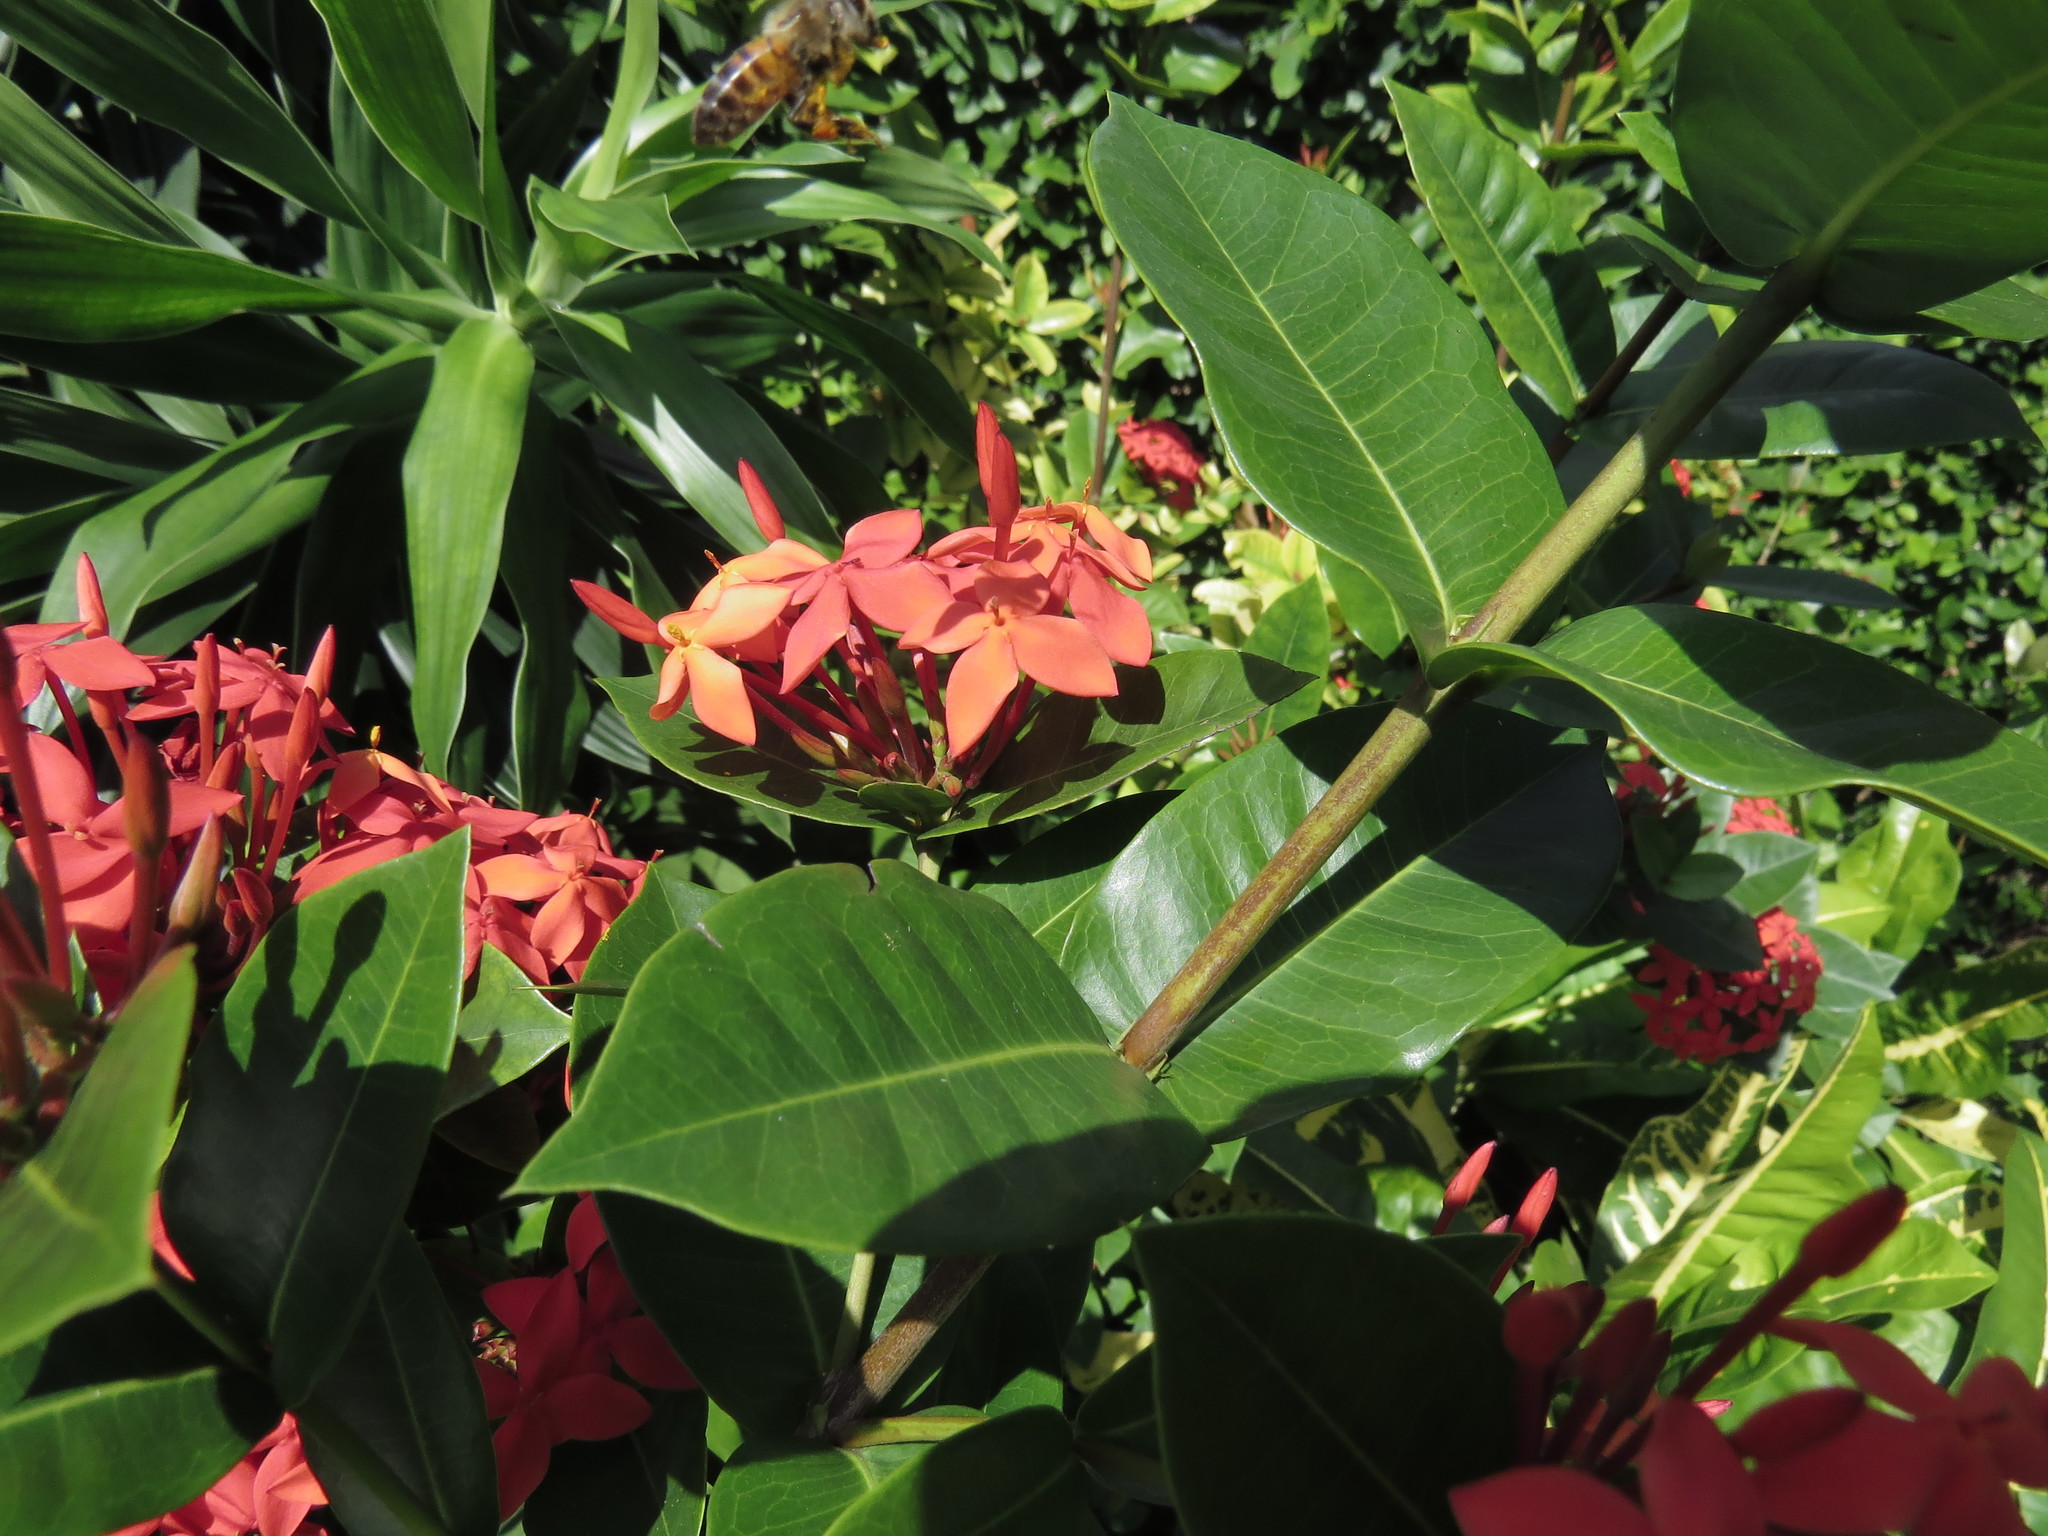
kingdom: Plantae
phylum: Tracheophyta
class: Magnoliopsida
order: Gentianales
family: Rubiaceae
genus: Ixora
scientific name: Ixora coccinea
